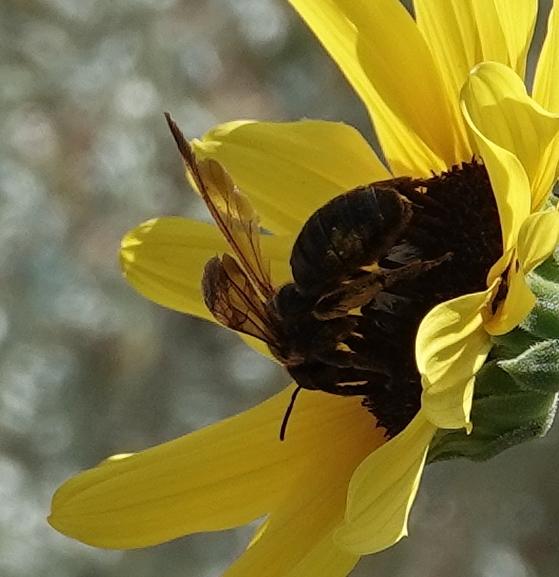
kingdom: Animalia
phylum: Arthropoda
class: Insecta
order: Hymenoptera
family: Halictidae
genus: Dieunomia
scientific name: Dieunomia heteropoda
